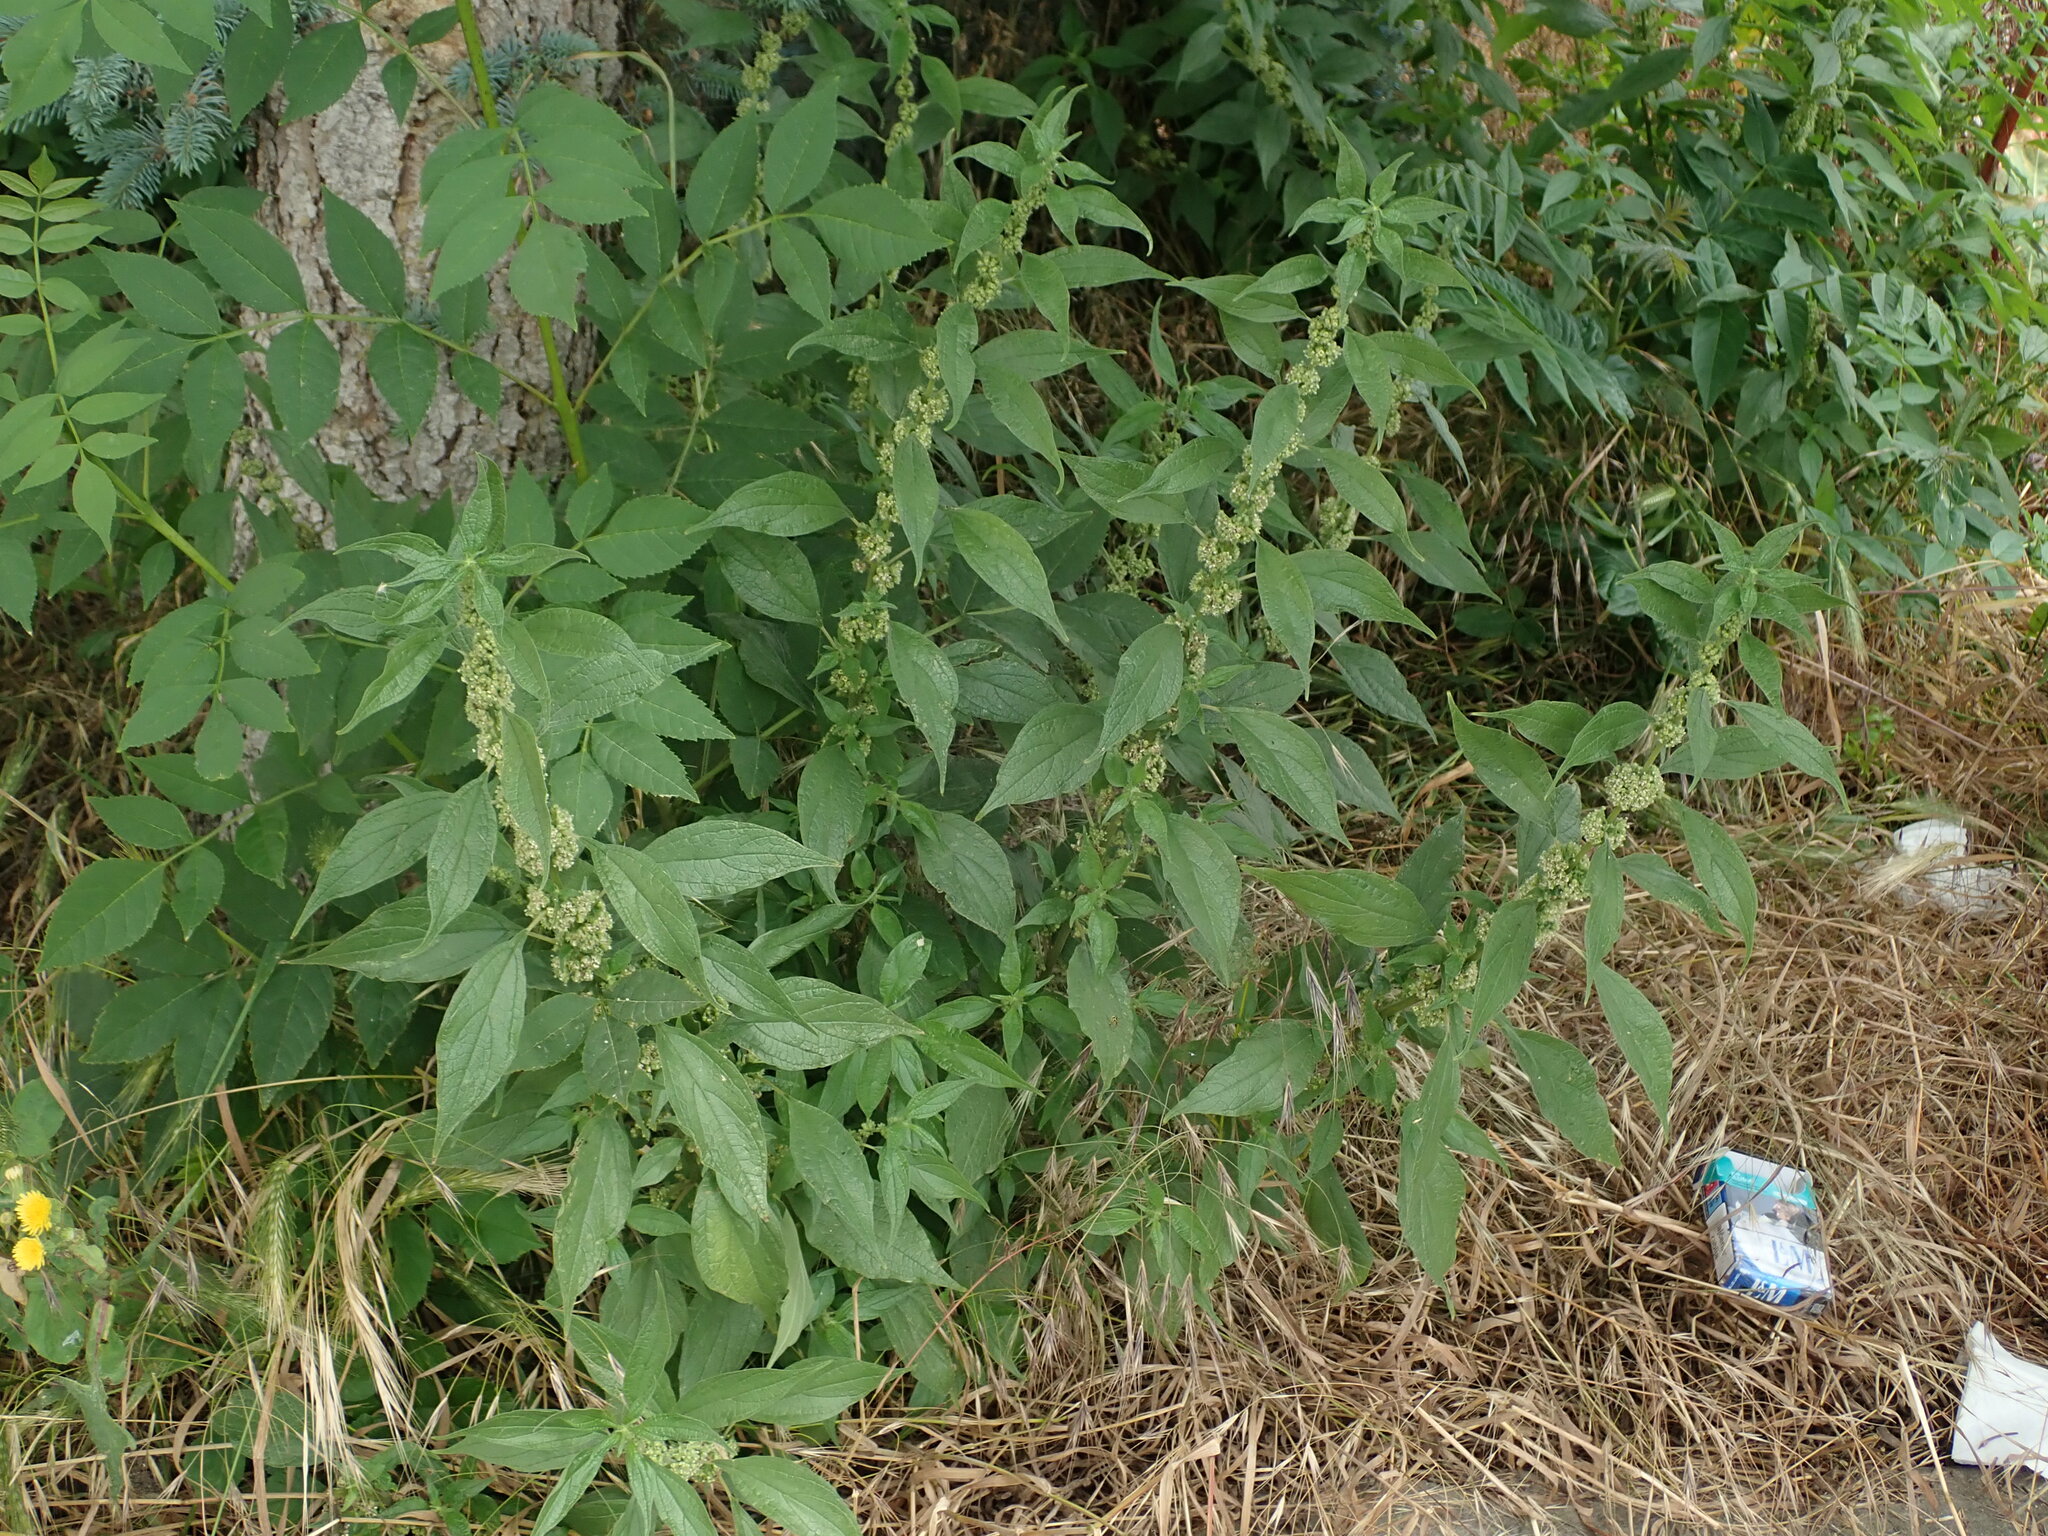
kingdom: Plantae
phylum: Tracheophyta
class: Magnoliopsida
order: Rosales
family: Urticaceae
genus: Parietaria
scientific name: Parietaria officinalis
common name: Eastern pellitory-of-the-wall
